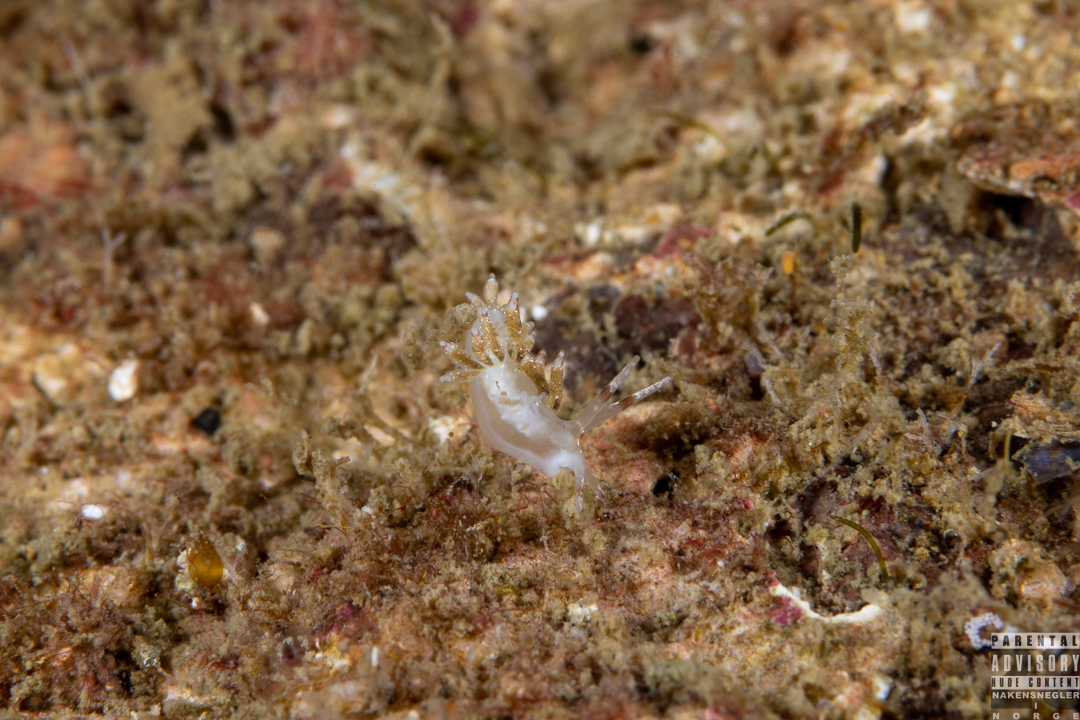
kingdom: Animalia
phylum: Mollusca
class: Gastropoda
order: Nudibranchia
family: Trinchesiidae
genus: Rubramoena
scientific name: Rubramoena amoena
